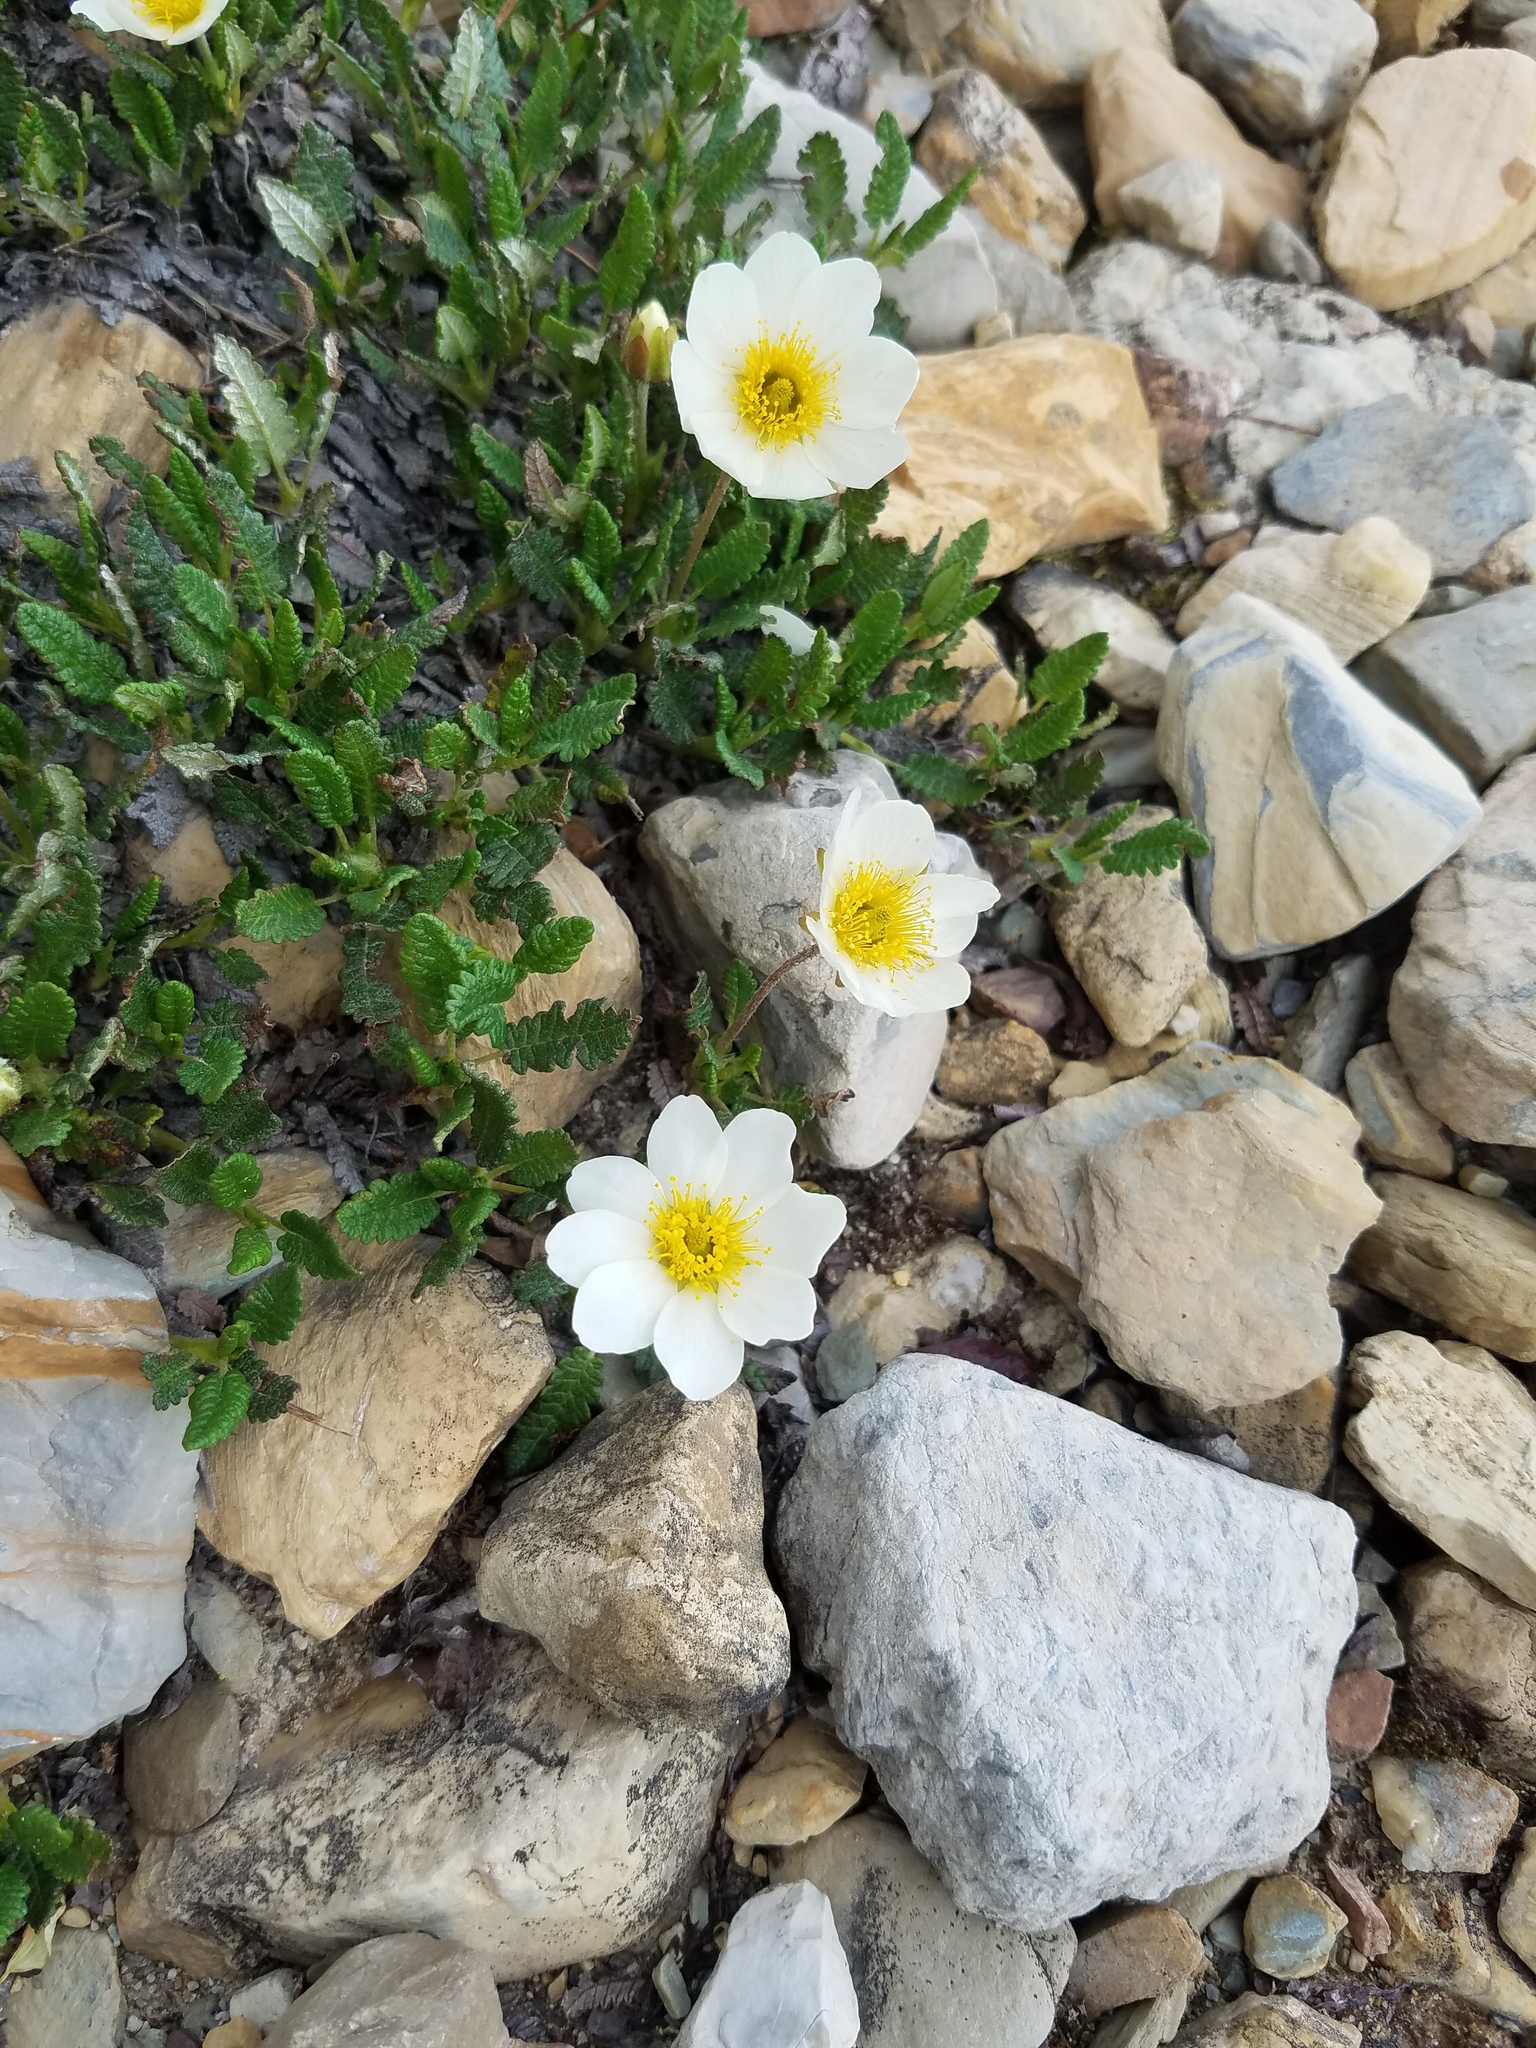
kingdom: Plantae
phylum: Tracheophyta
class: Magnoliopsida
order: Rosales
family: Rosaceae
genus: Dryas
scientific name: Dryas octopetala
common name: Eight-petal mountain-avens
